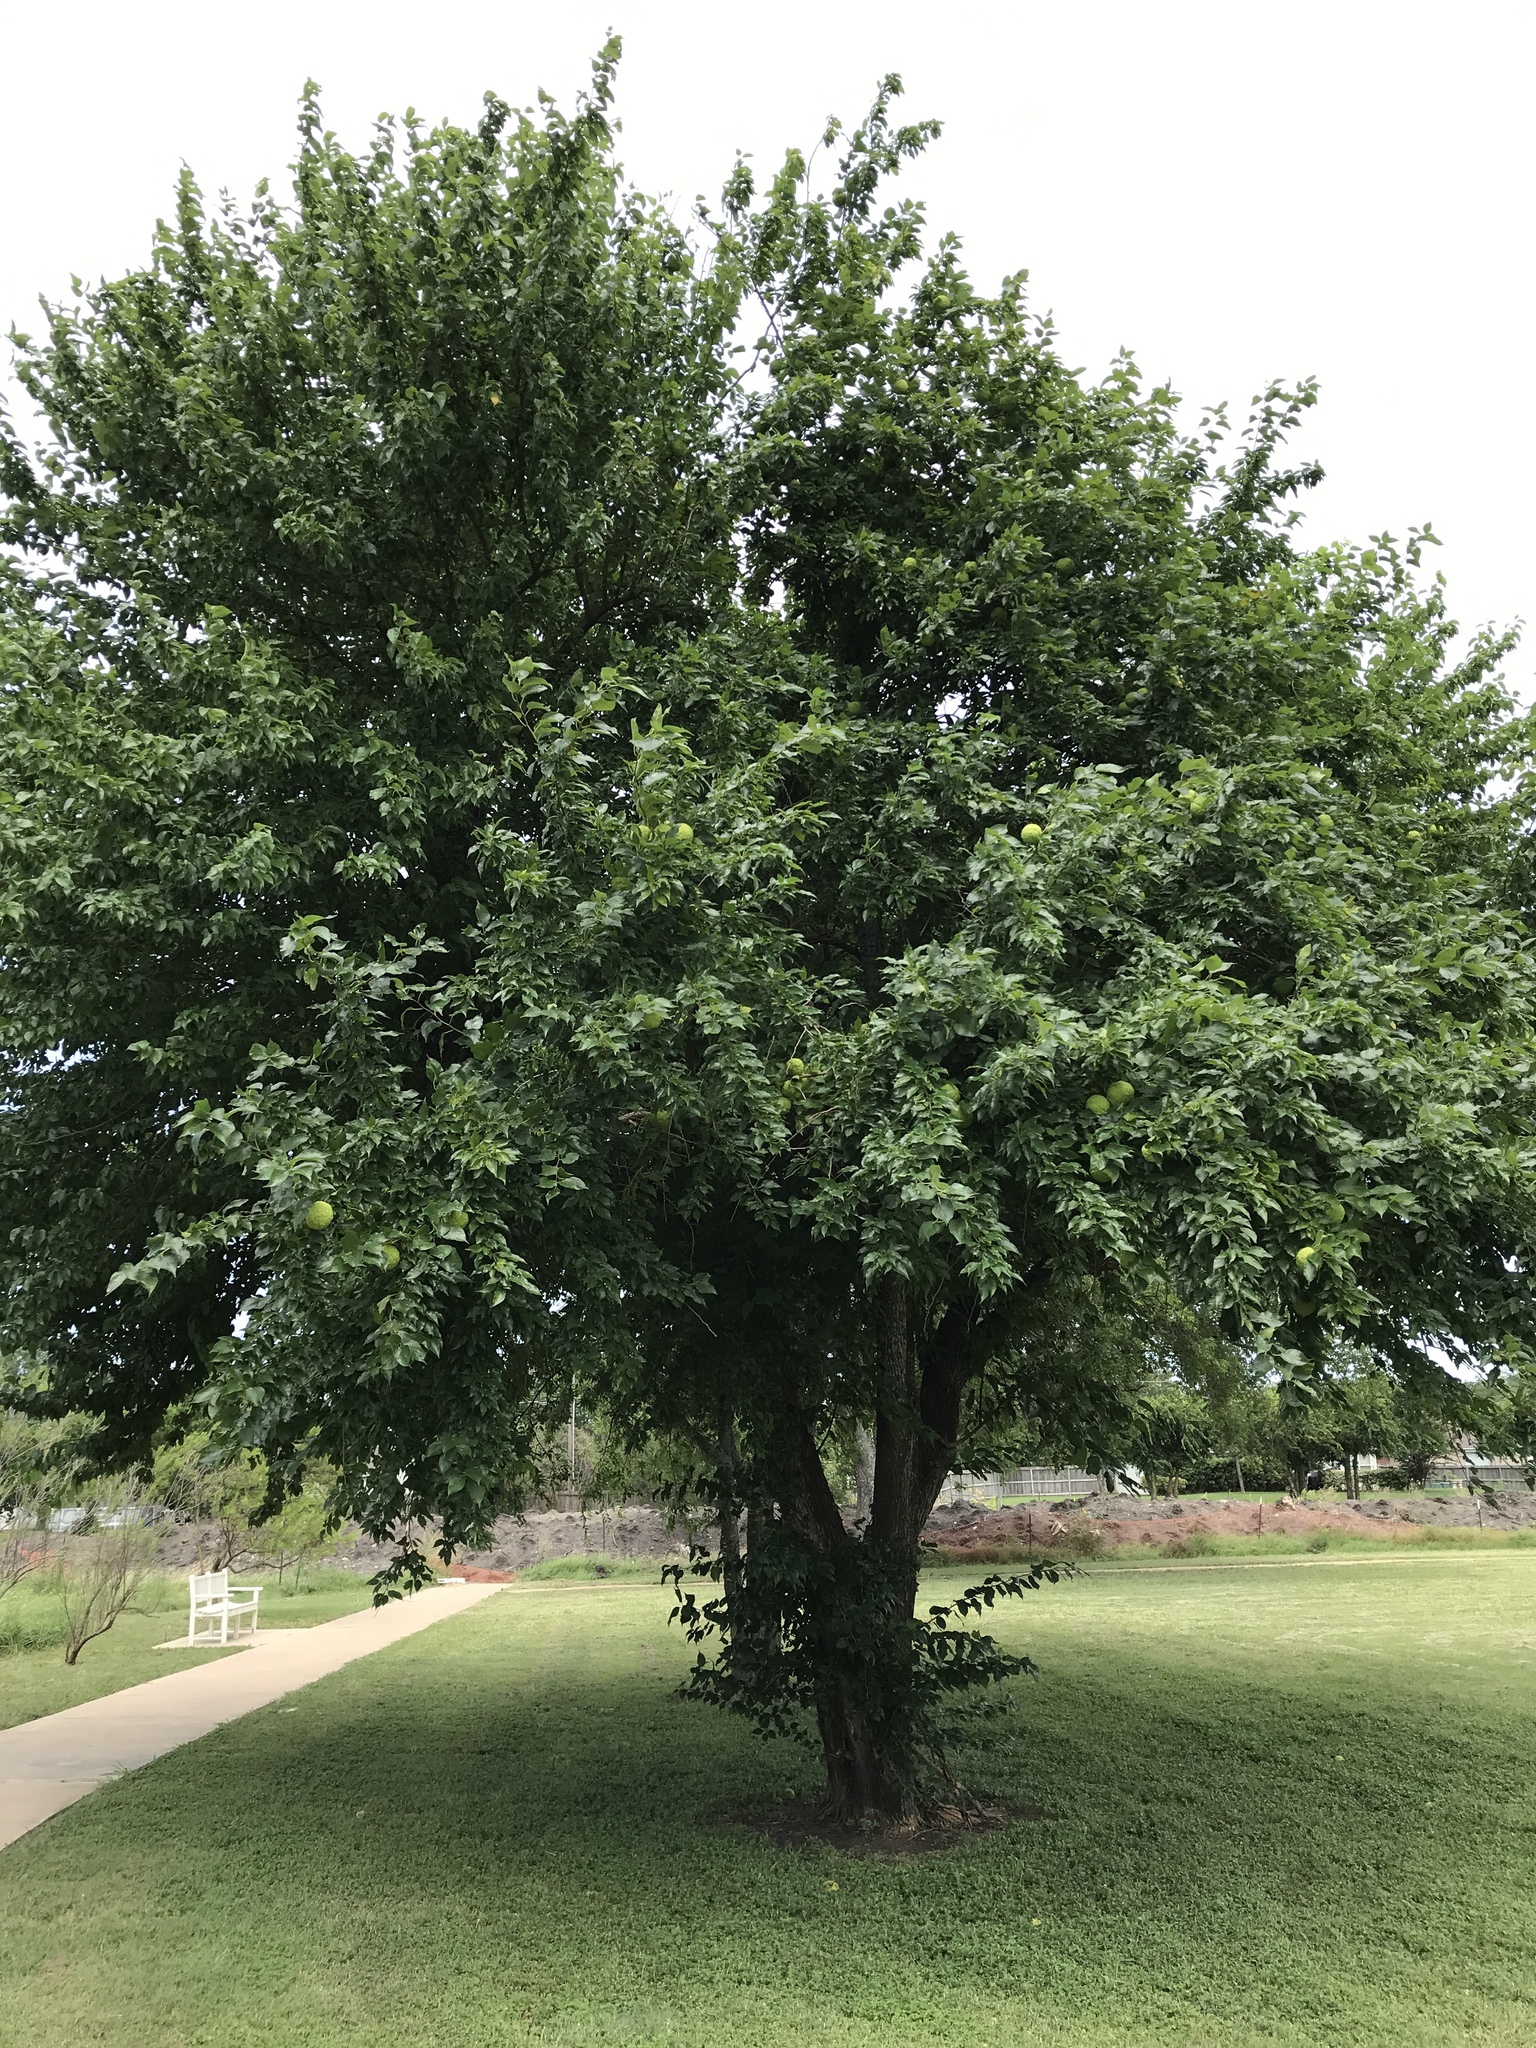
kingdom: Plantae
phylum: Tracheophyta
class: Magnoliopsida
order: Rosales
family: Moraceae
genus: Maclura
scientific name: Maclura pomifera
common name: Osage-orange
